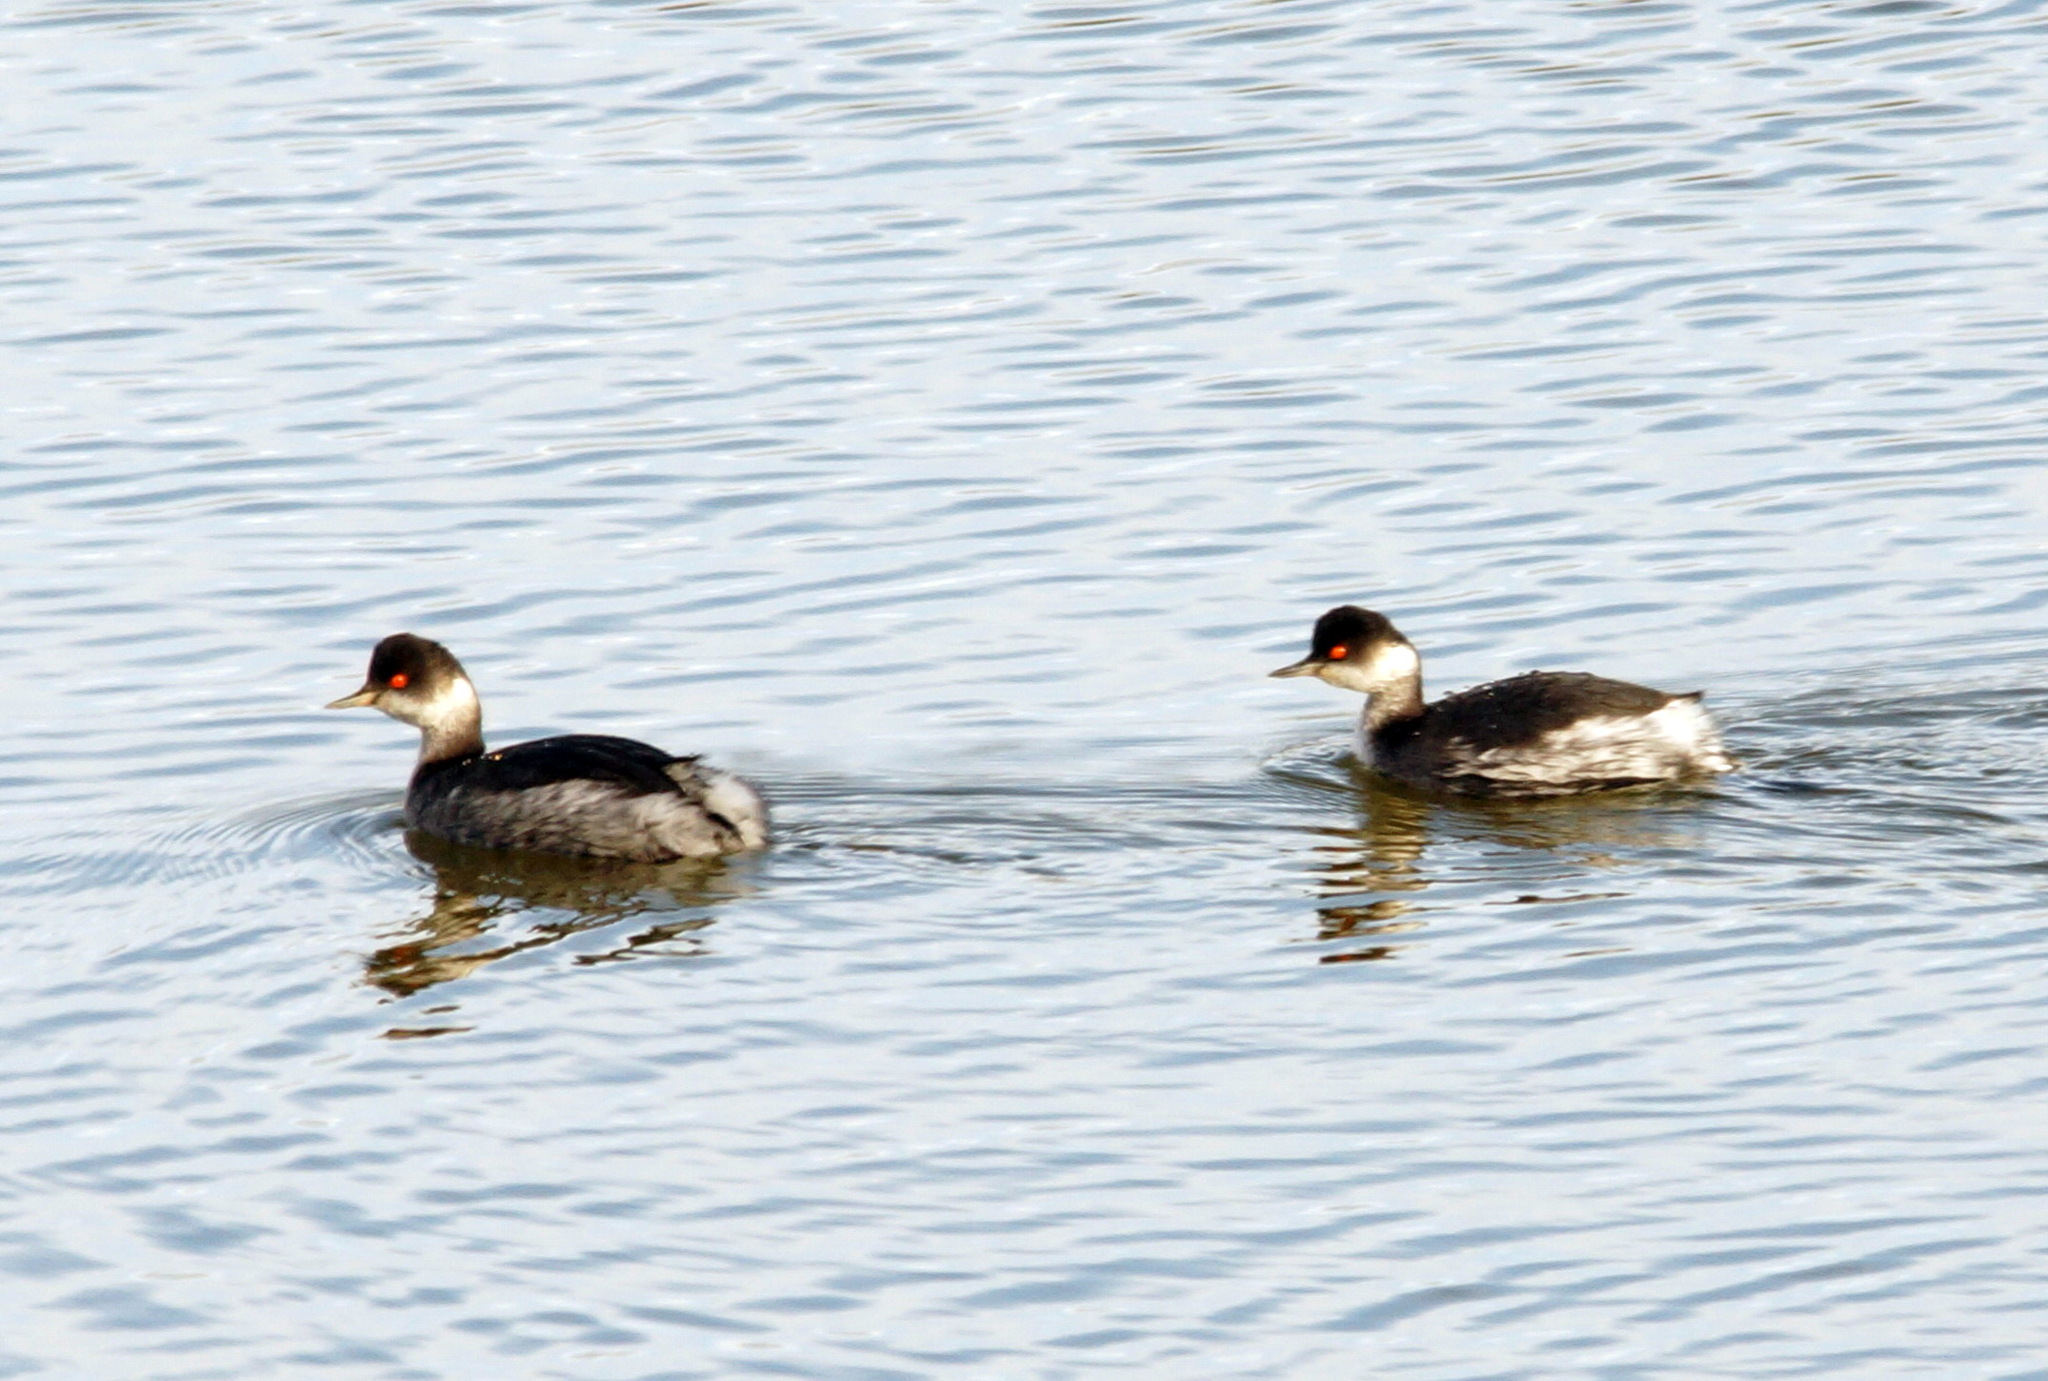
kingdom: Animalia
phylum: Chordata
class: Aves
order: Podicipediformes
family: Podicipedidae
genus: Podiceps
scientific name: Podiceps nigricollis
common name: Black-necked grebe
